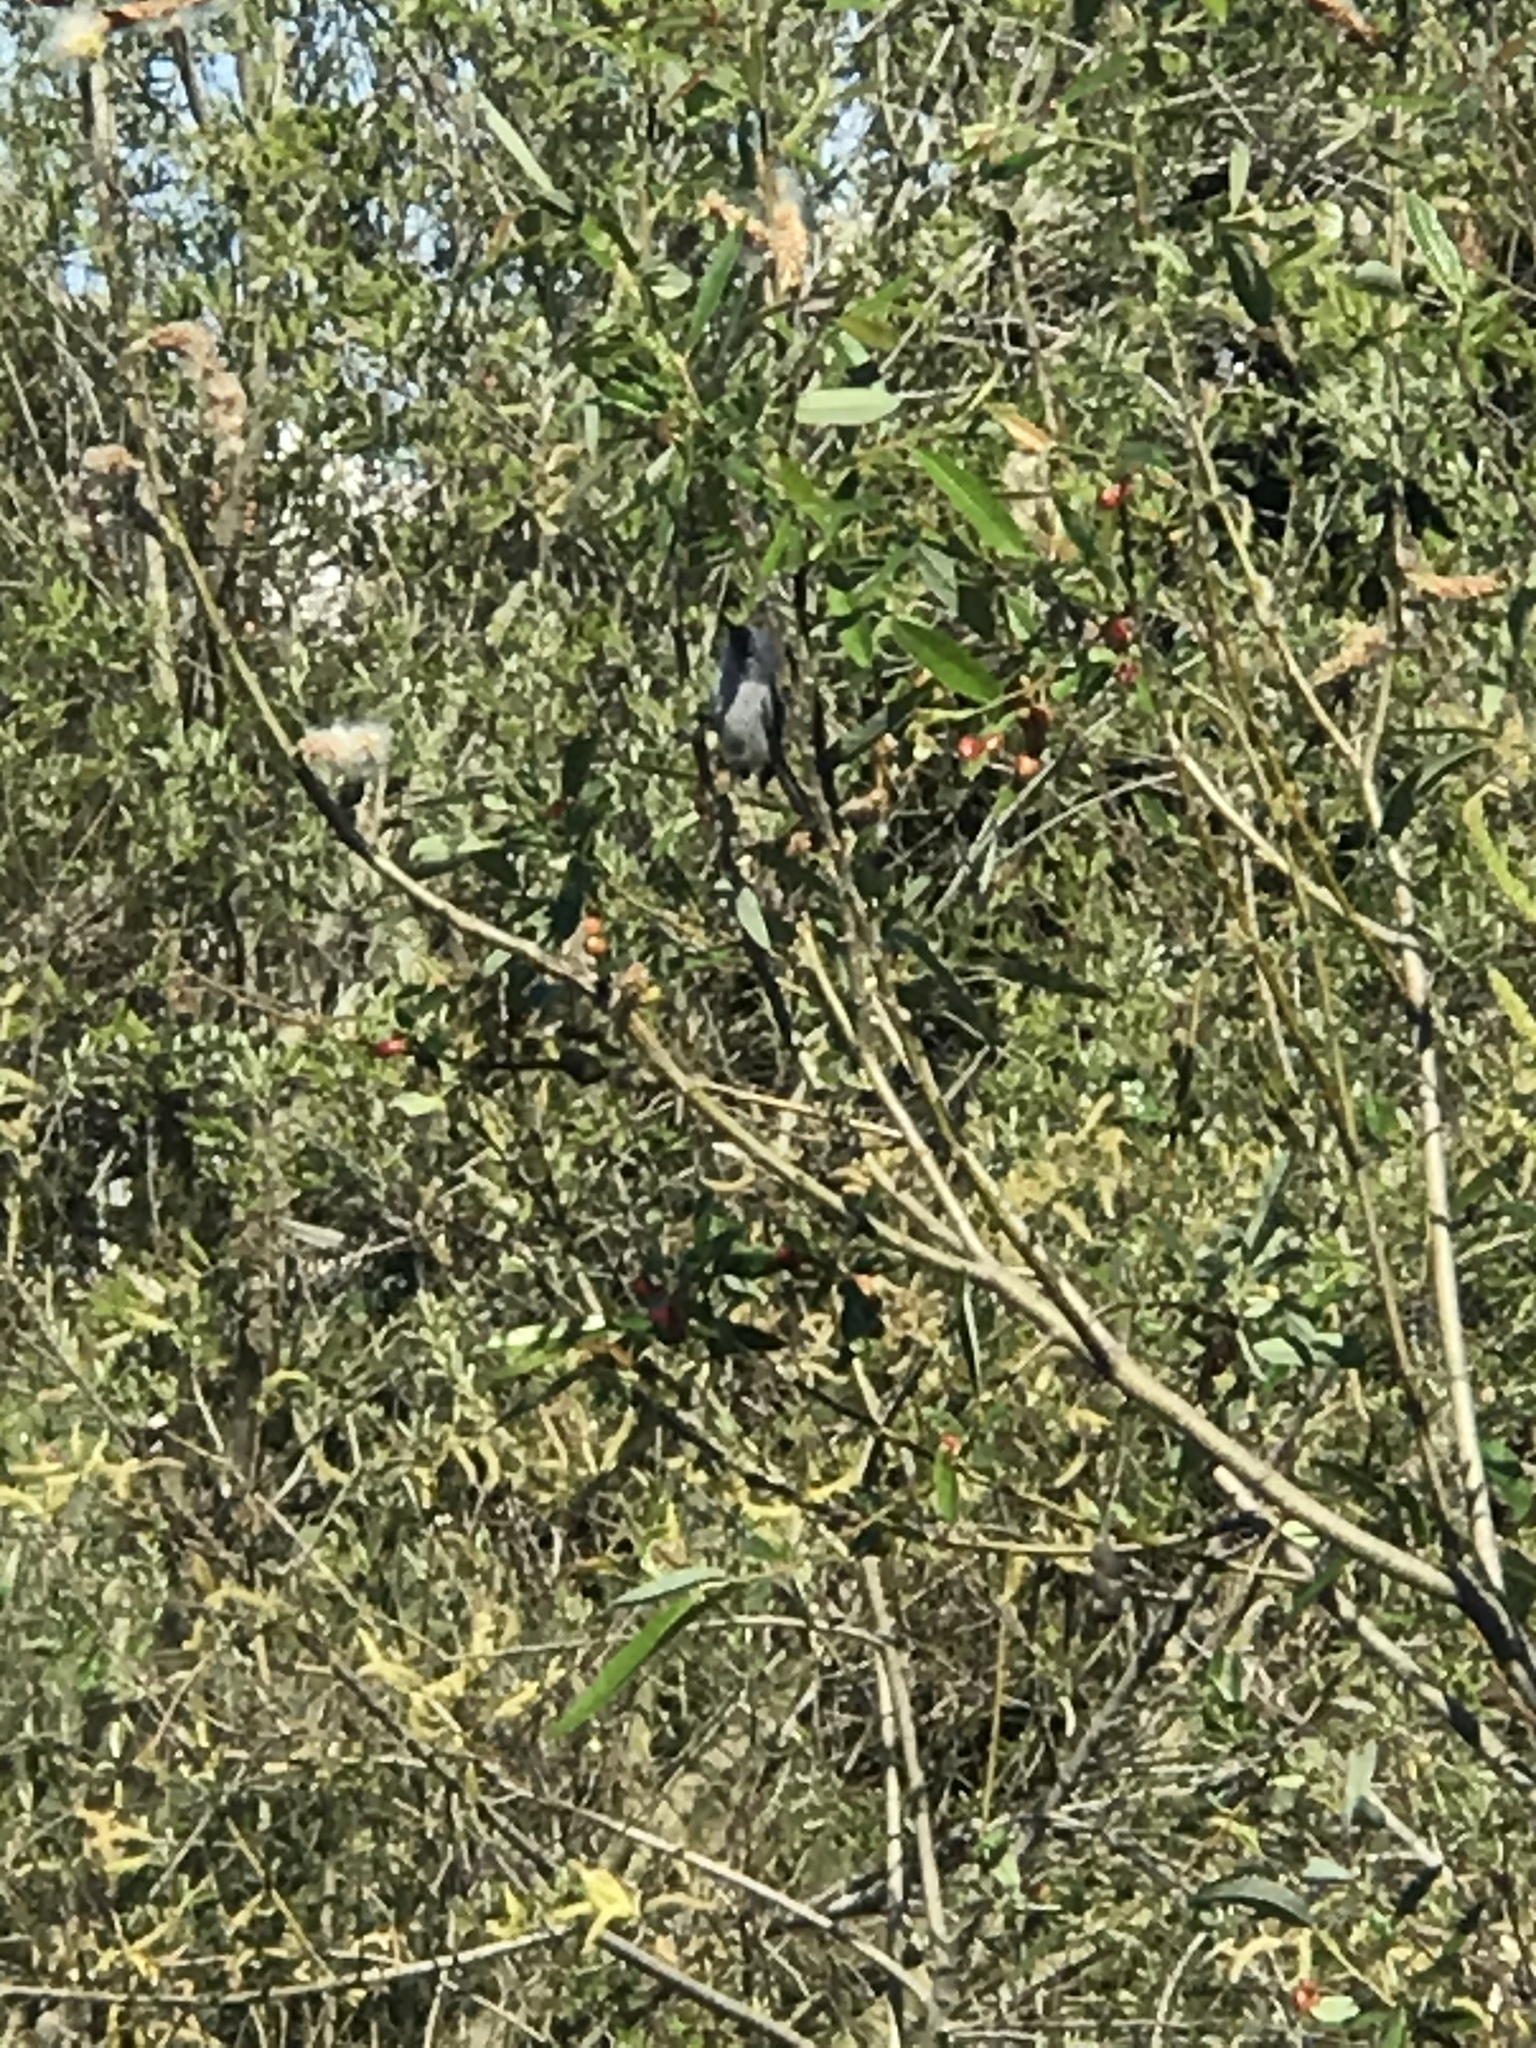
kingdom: Animalia
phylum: Chordata
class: Aves
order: Passeriformes
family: Polioptilidae
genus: Polioptila
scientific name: Polioptila caerulea
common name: Blue-gray gnatcatcher
